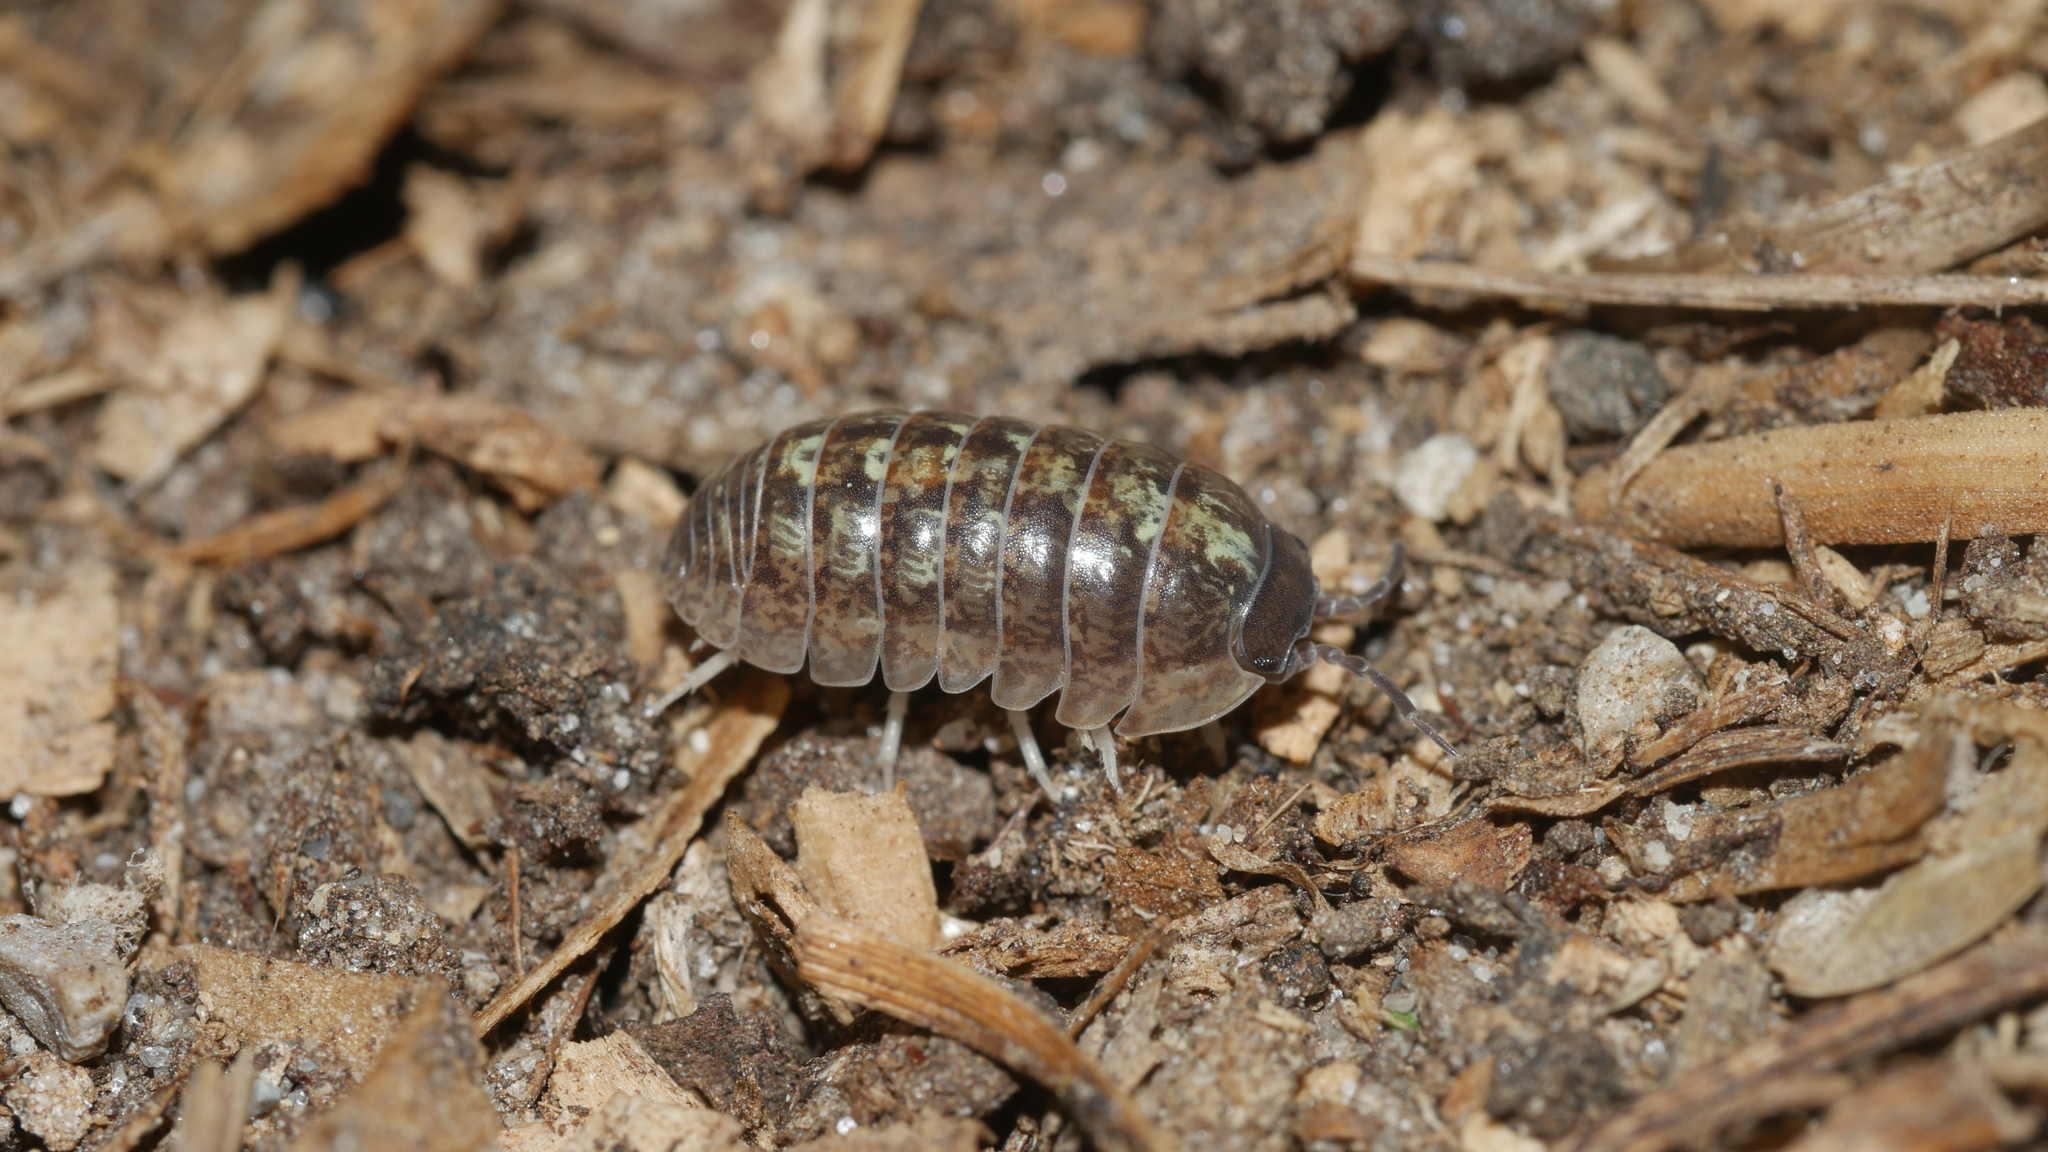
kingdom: Animalia
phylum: Arthropoda
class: Malacostraca
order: Isopoda
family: Armadillidiidae
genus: Armadillidium
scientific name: Armadillidium vulgare
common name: Common pill woodlouse
